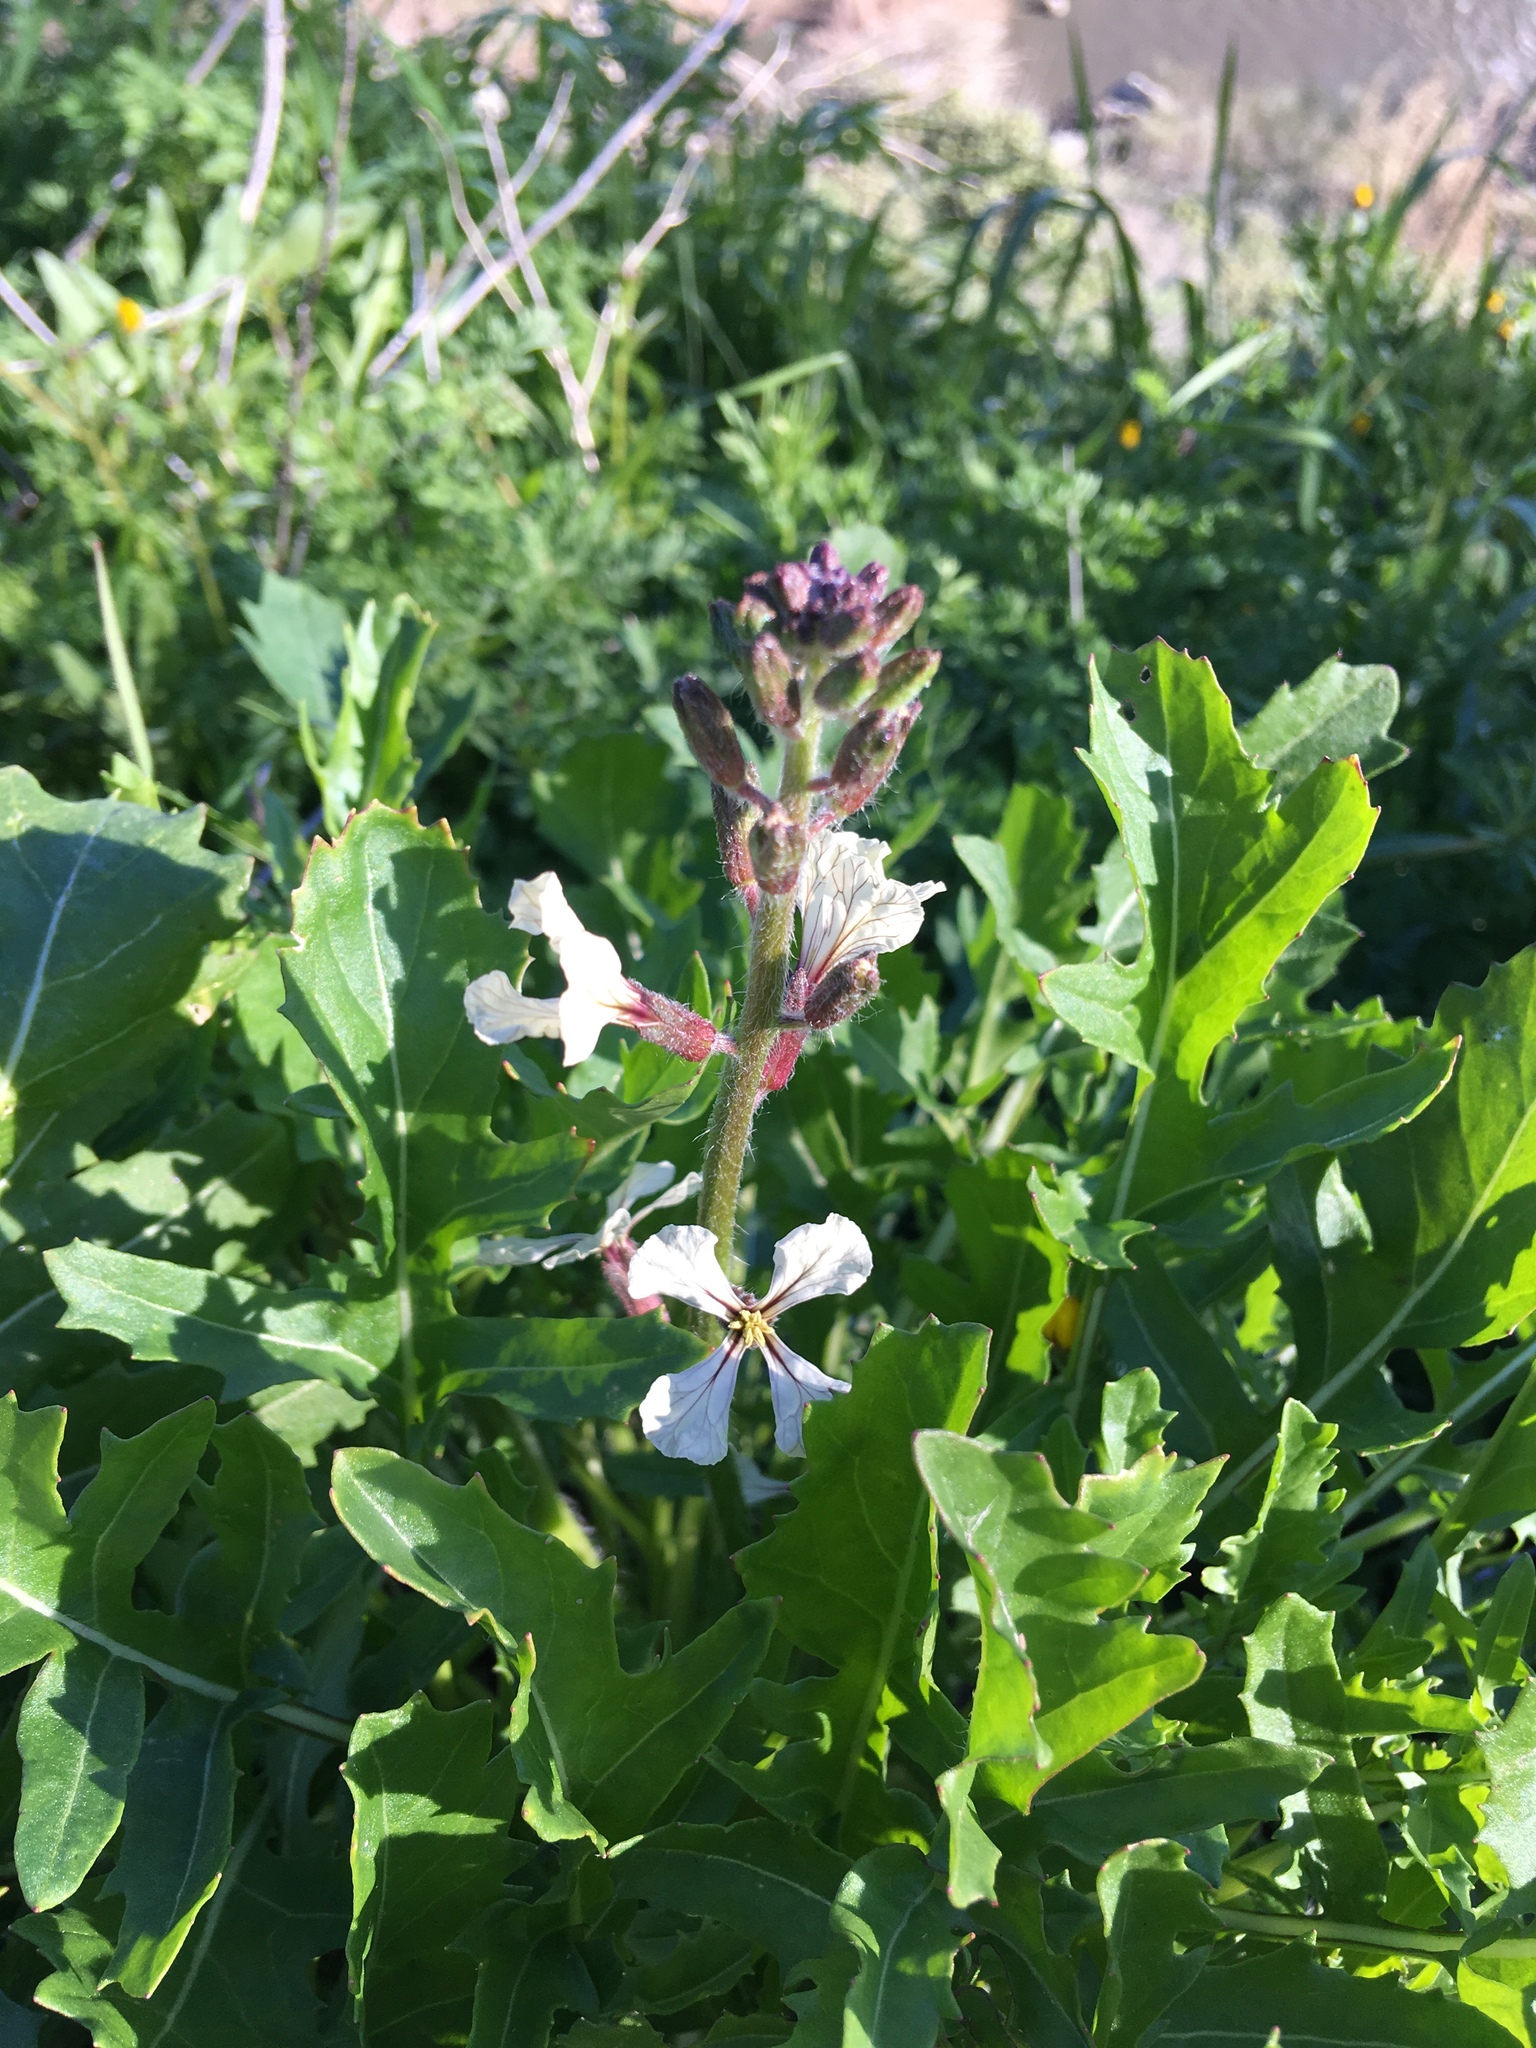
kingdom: Plantae
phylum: Tracheophyta
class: Magnoliopsida
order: Brassicales
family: Brassicaceae
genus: Eruca
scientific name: Eruca vesicaria
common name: Garden rocket
